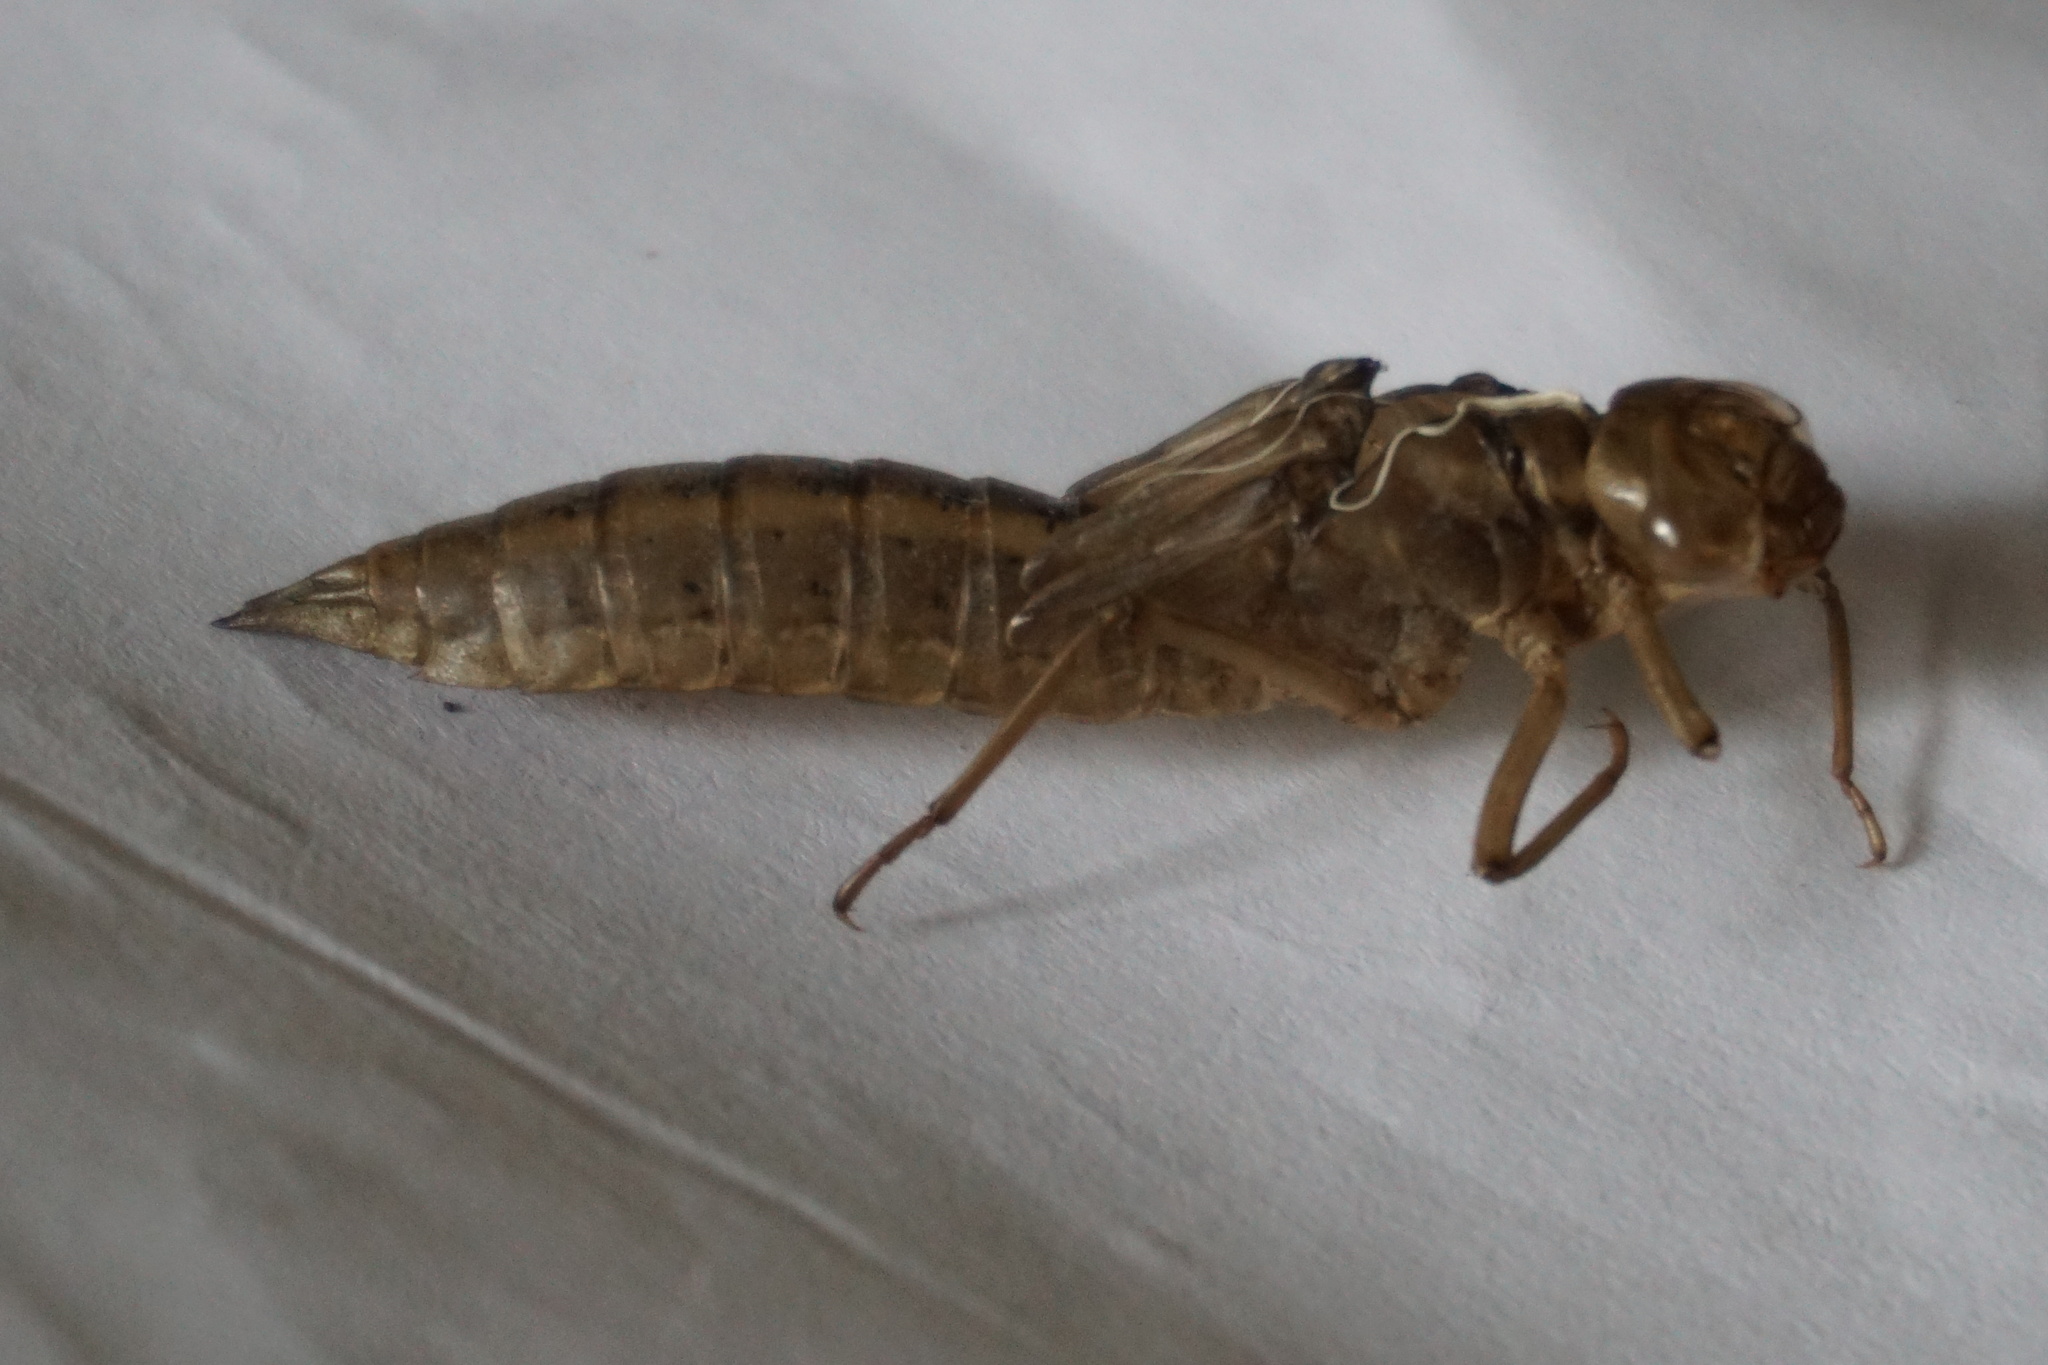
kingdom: Animalia
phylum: Arthropoda
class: Insecta
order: Odonata
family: Aeshnidae
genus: Aeshna
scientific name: Aeshna juncea
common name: Moorland hawker
